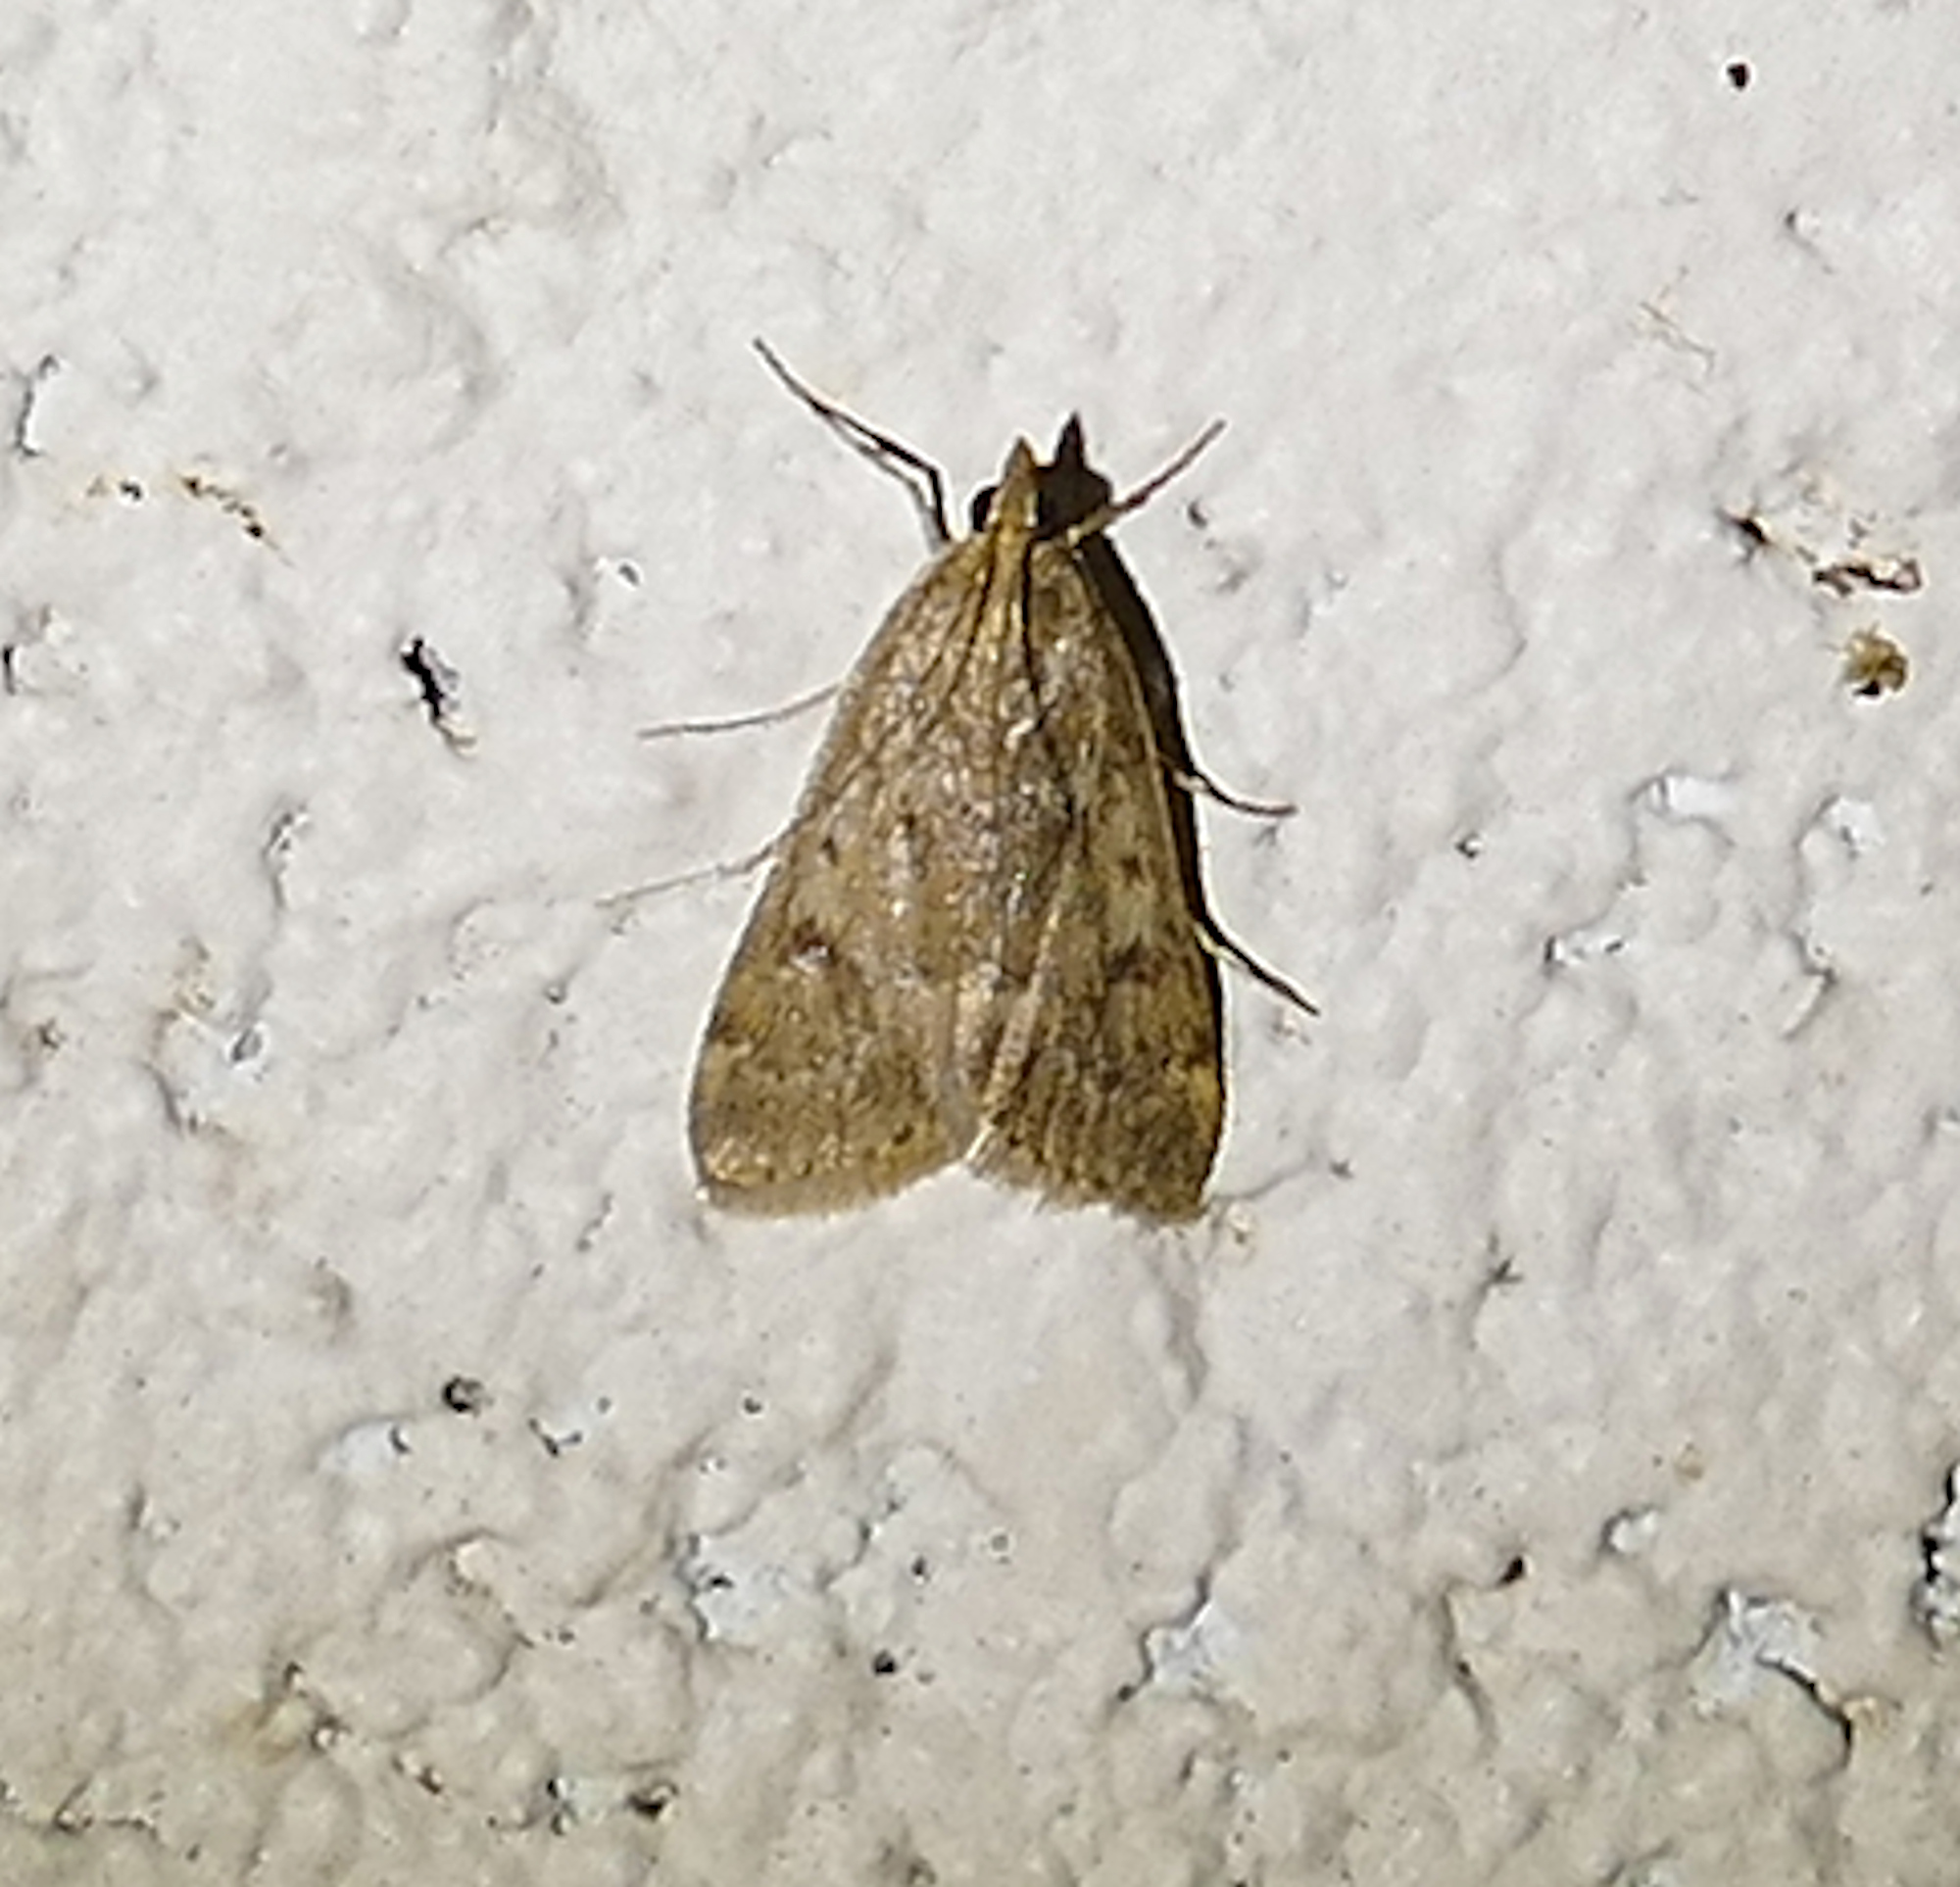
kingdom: Animalia
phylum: Arthropoda
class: Insecta
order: Lepidoptera
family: Crambidae
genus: Achyra
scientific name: Achyra rantalis
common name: Garden webworm
